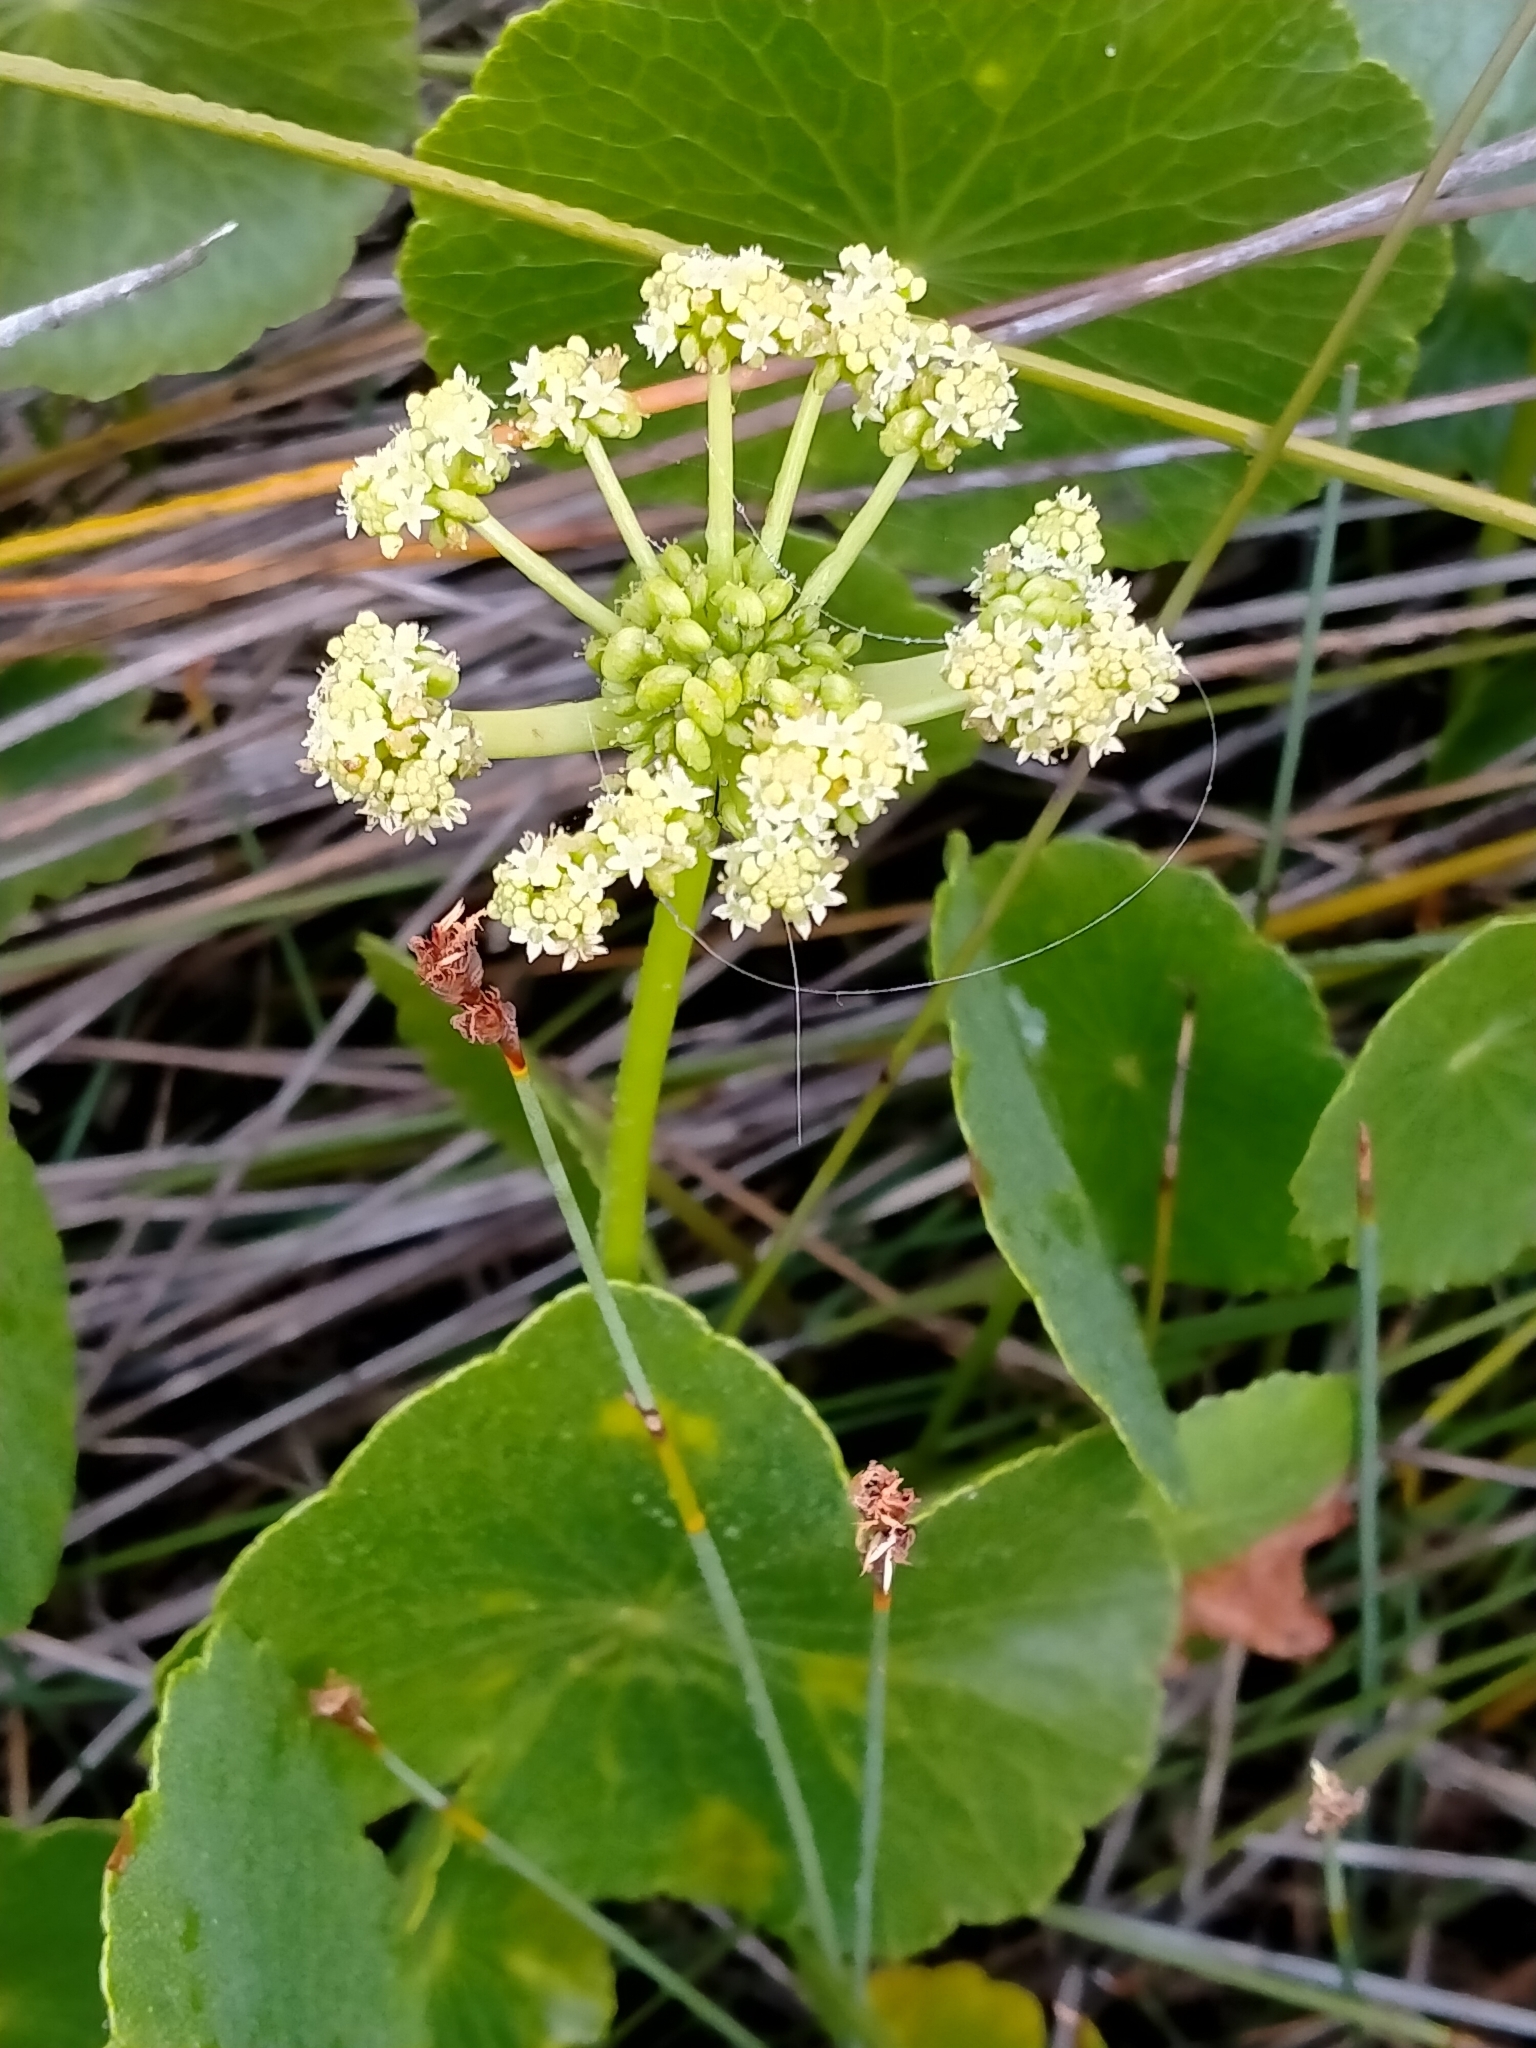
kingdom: Plantae
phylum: Tracheophyta
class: Magnoliopsida
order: Apiales
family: Araliaceae
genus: Hydrocotyle
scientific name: Hydrocotyle bonariensis
